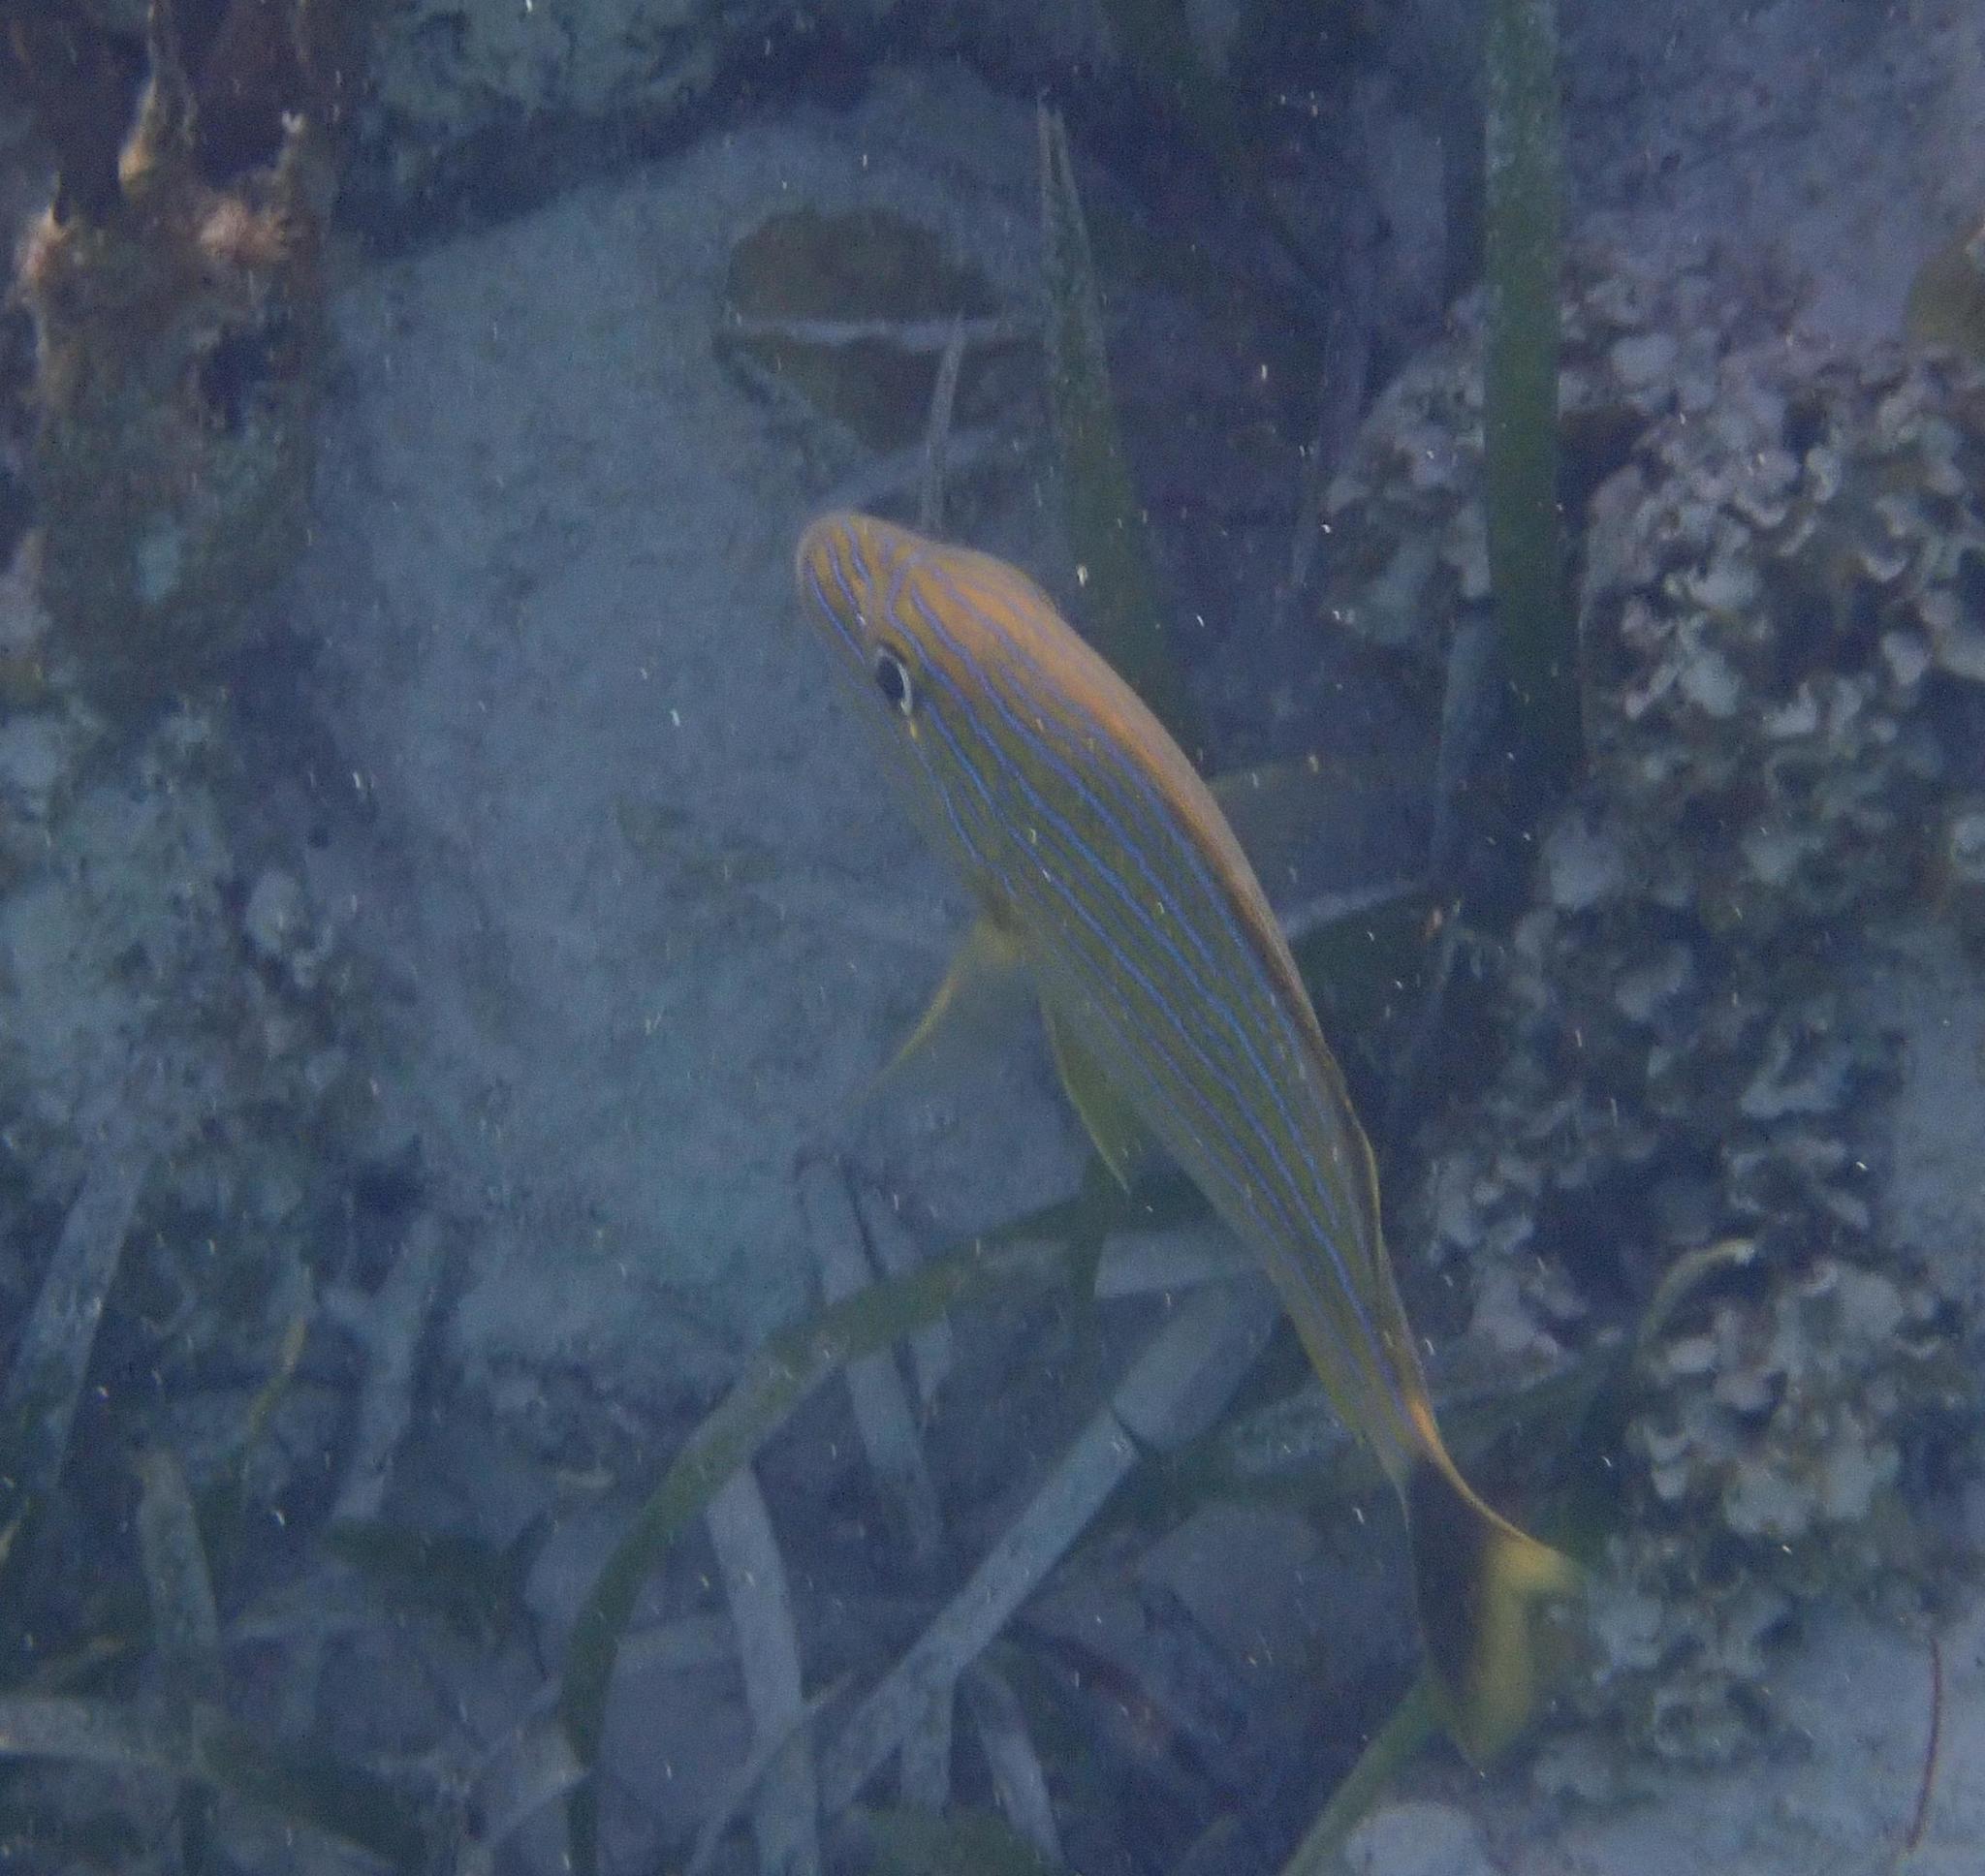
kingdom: Animalia
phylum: Chordata
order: Perciformes
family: Haemulidae
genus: Haemulon
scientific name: Haemulon sciurus
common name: Bluestriped grunt
